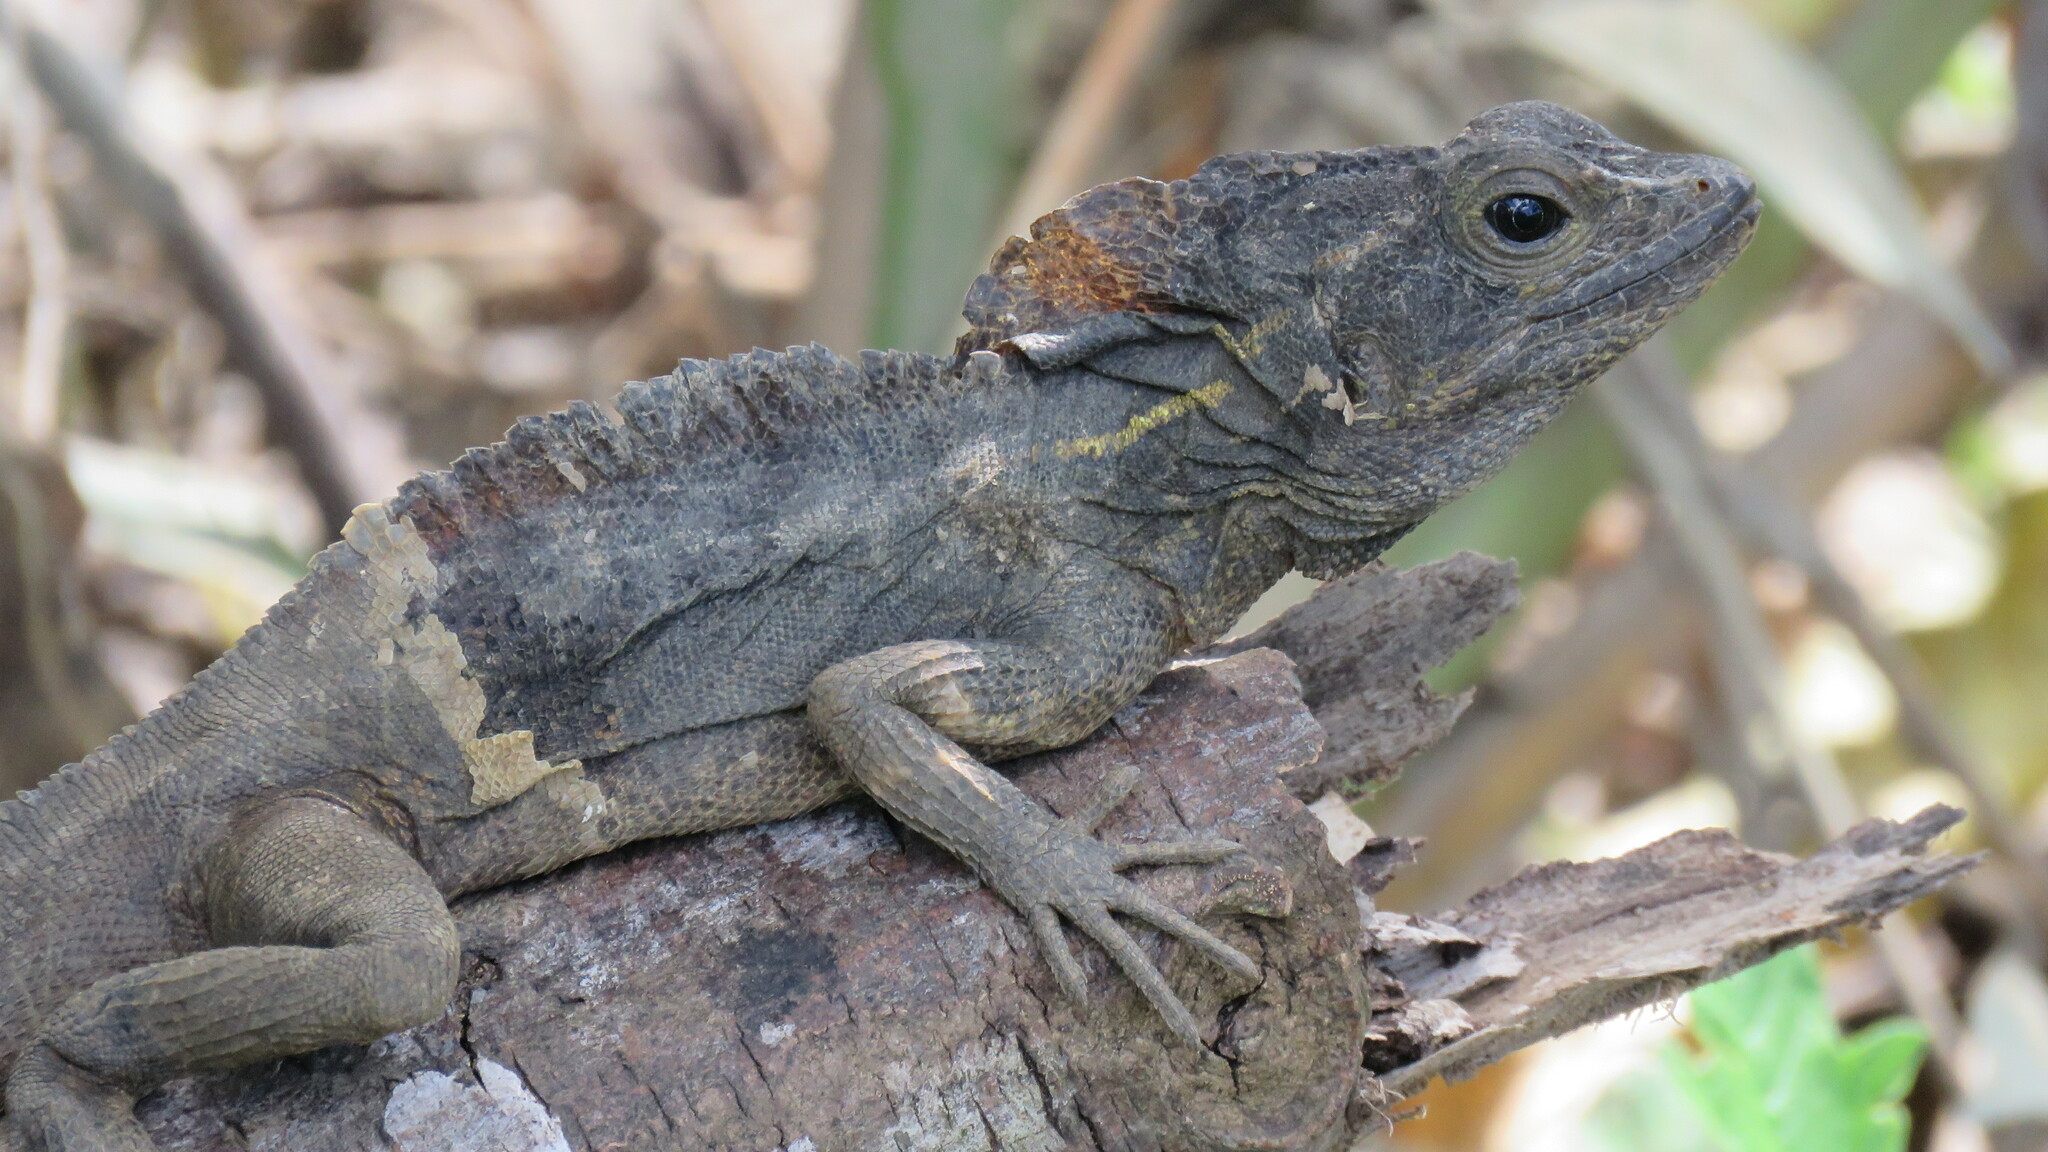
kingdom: Animalia
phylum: Chordata
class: Squamata
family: Corytophanidae
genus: Basiliscus
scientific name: Basiliscus vittatus
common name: Brown basilisk
